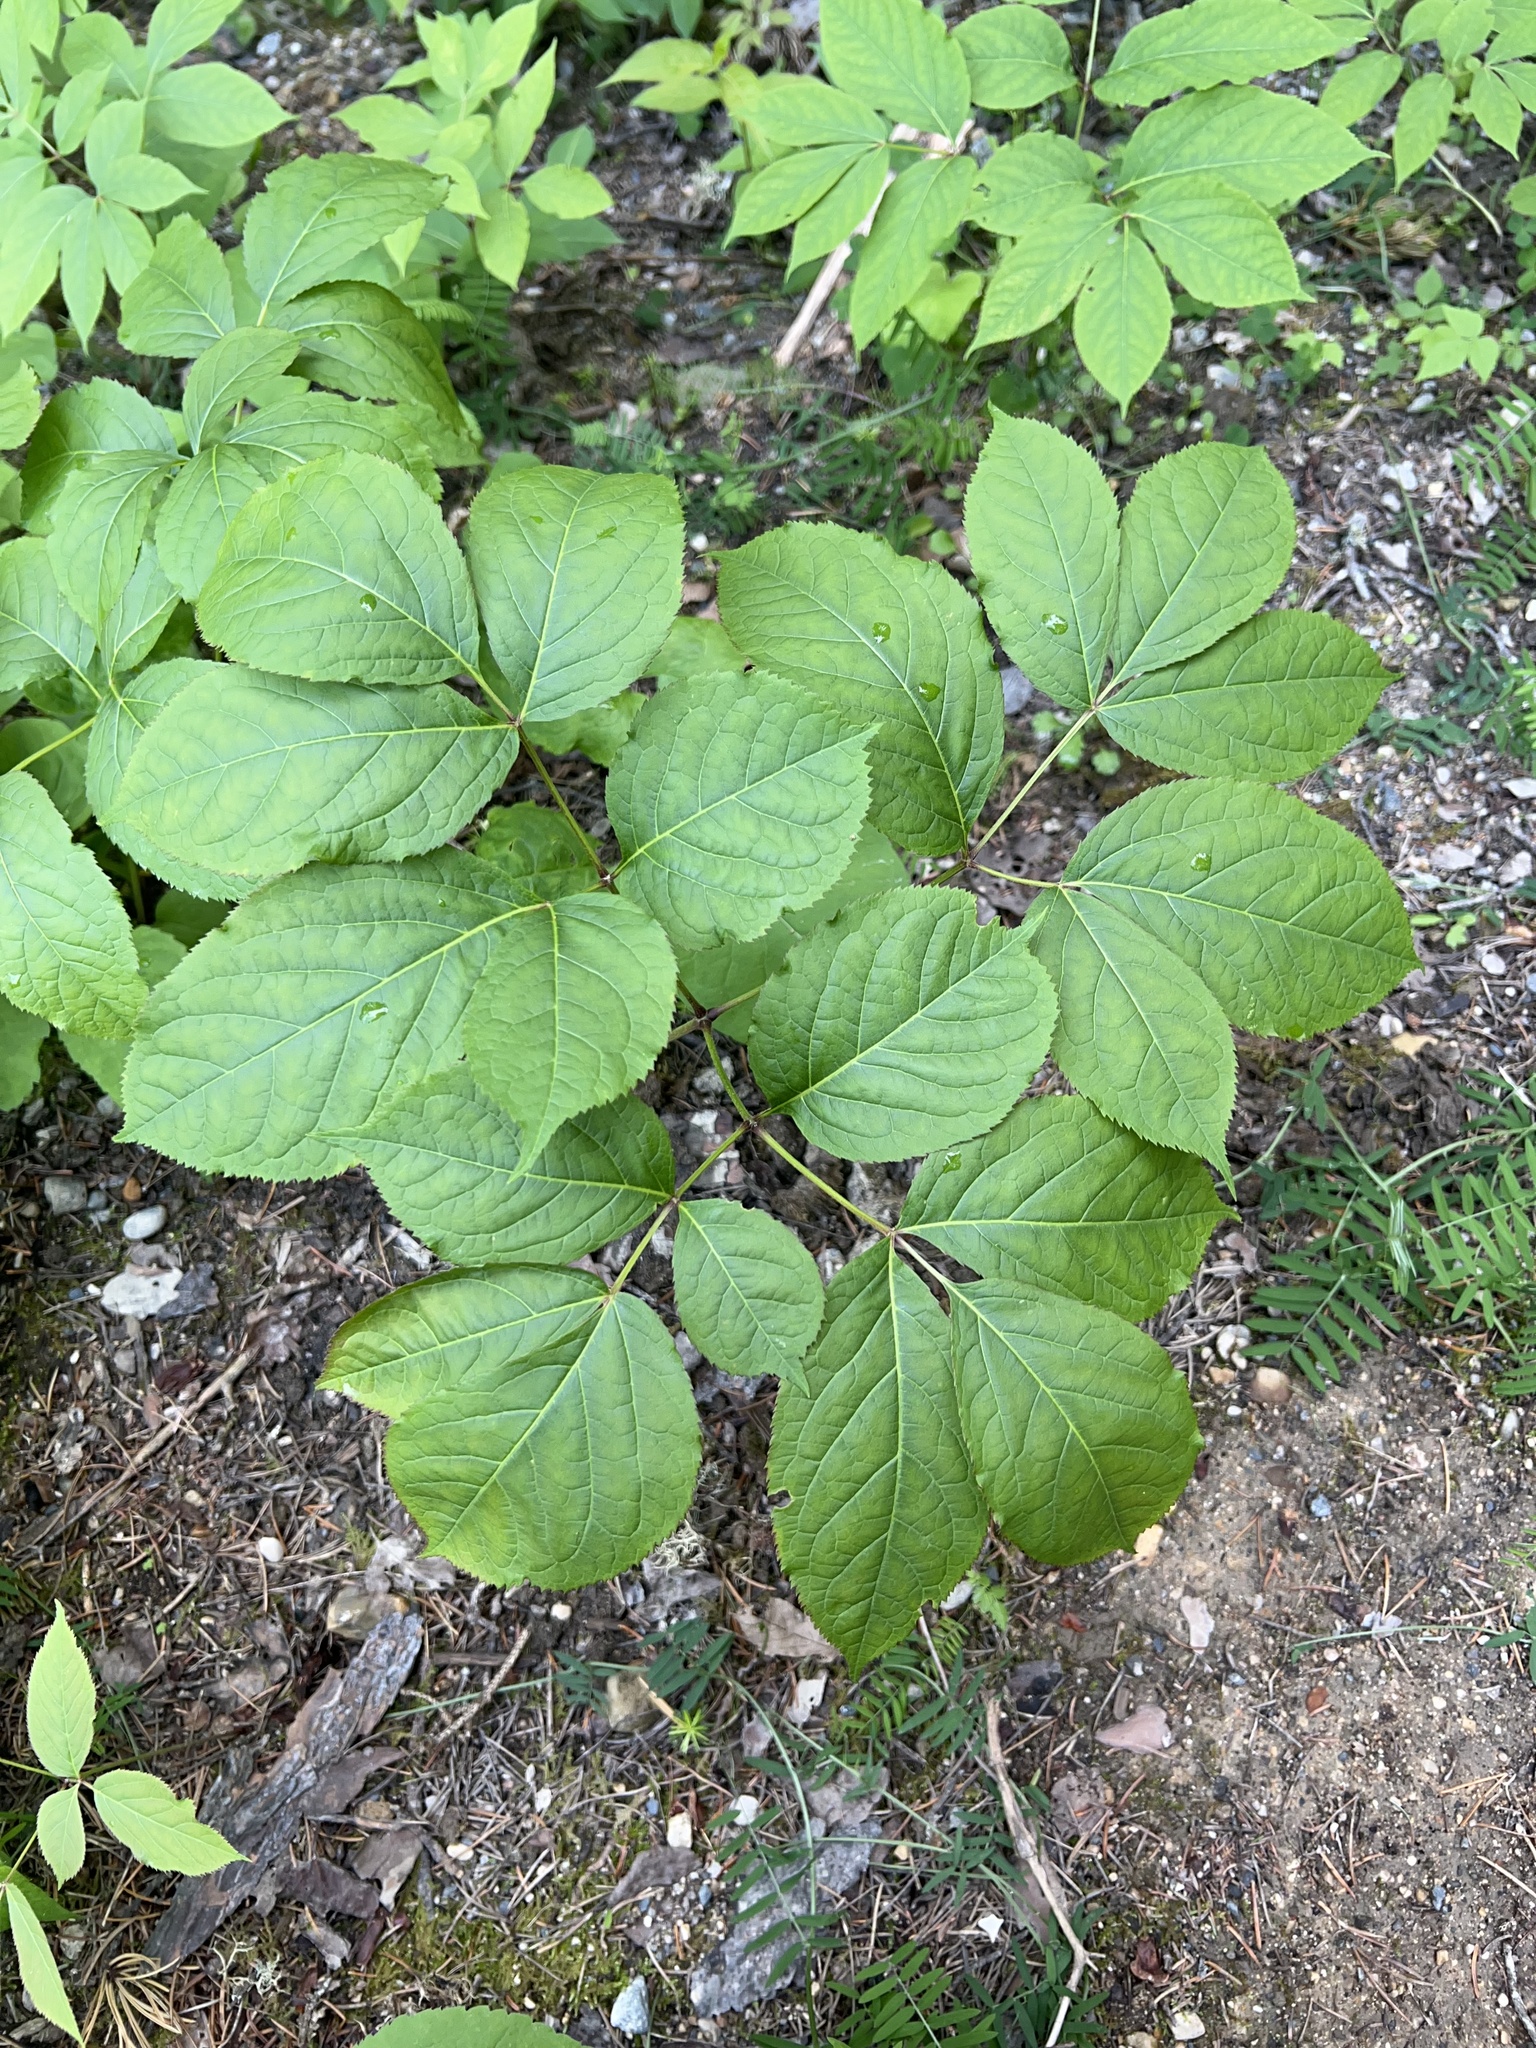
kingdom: Plantae
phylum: Tracheophyta
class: Magnoliopsida
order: Apiales
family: Araliaceae
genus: Aralia
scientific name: Aralia nudicaulis
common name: Wild sarsaparilla
